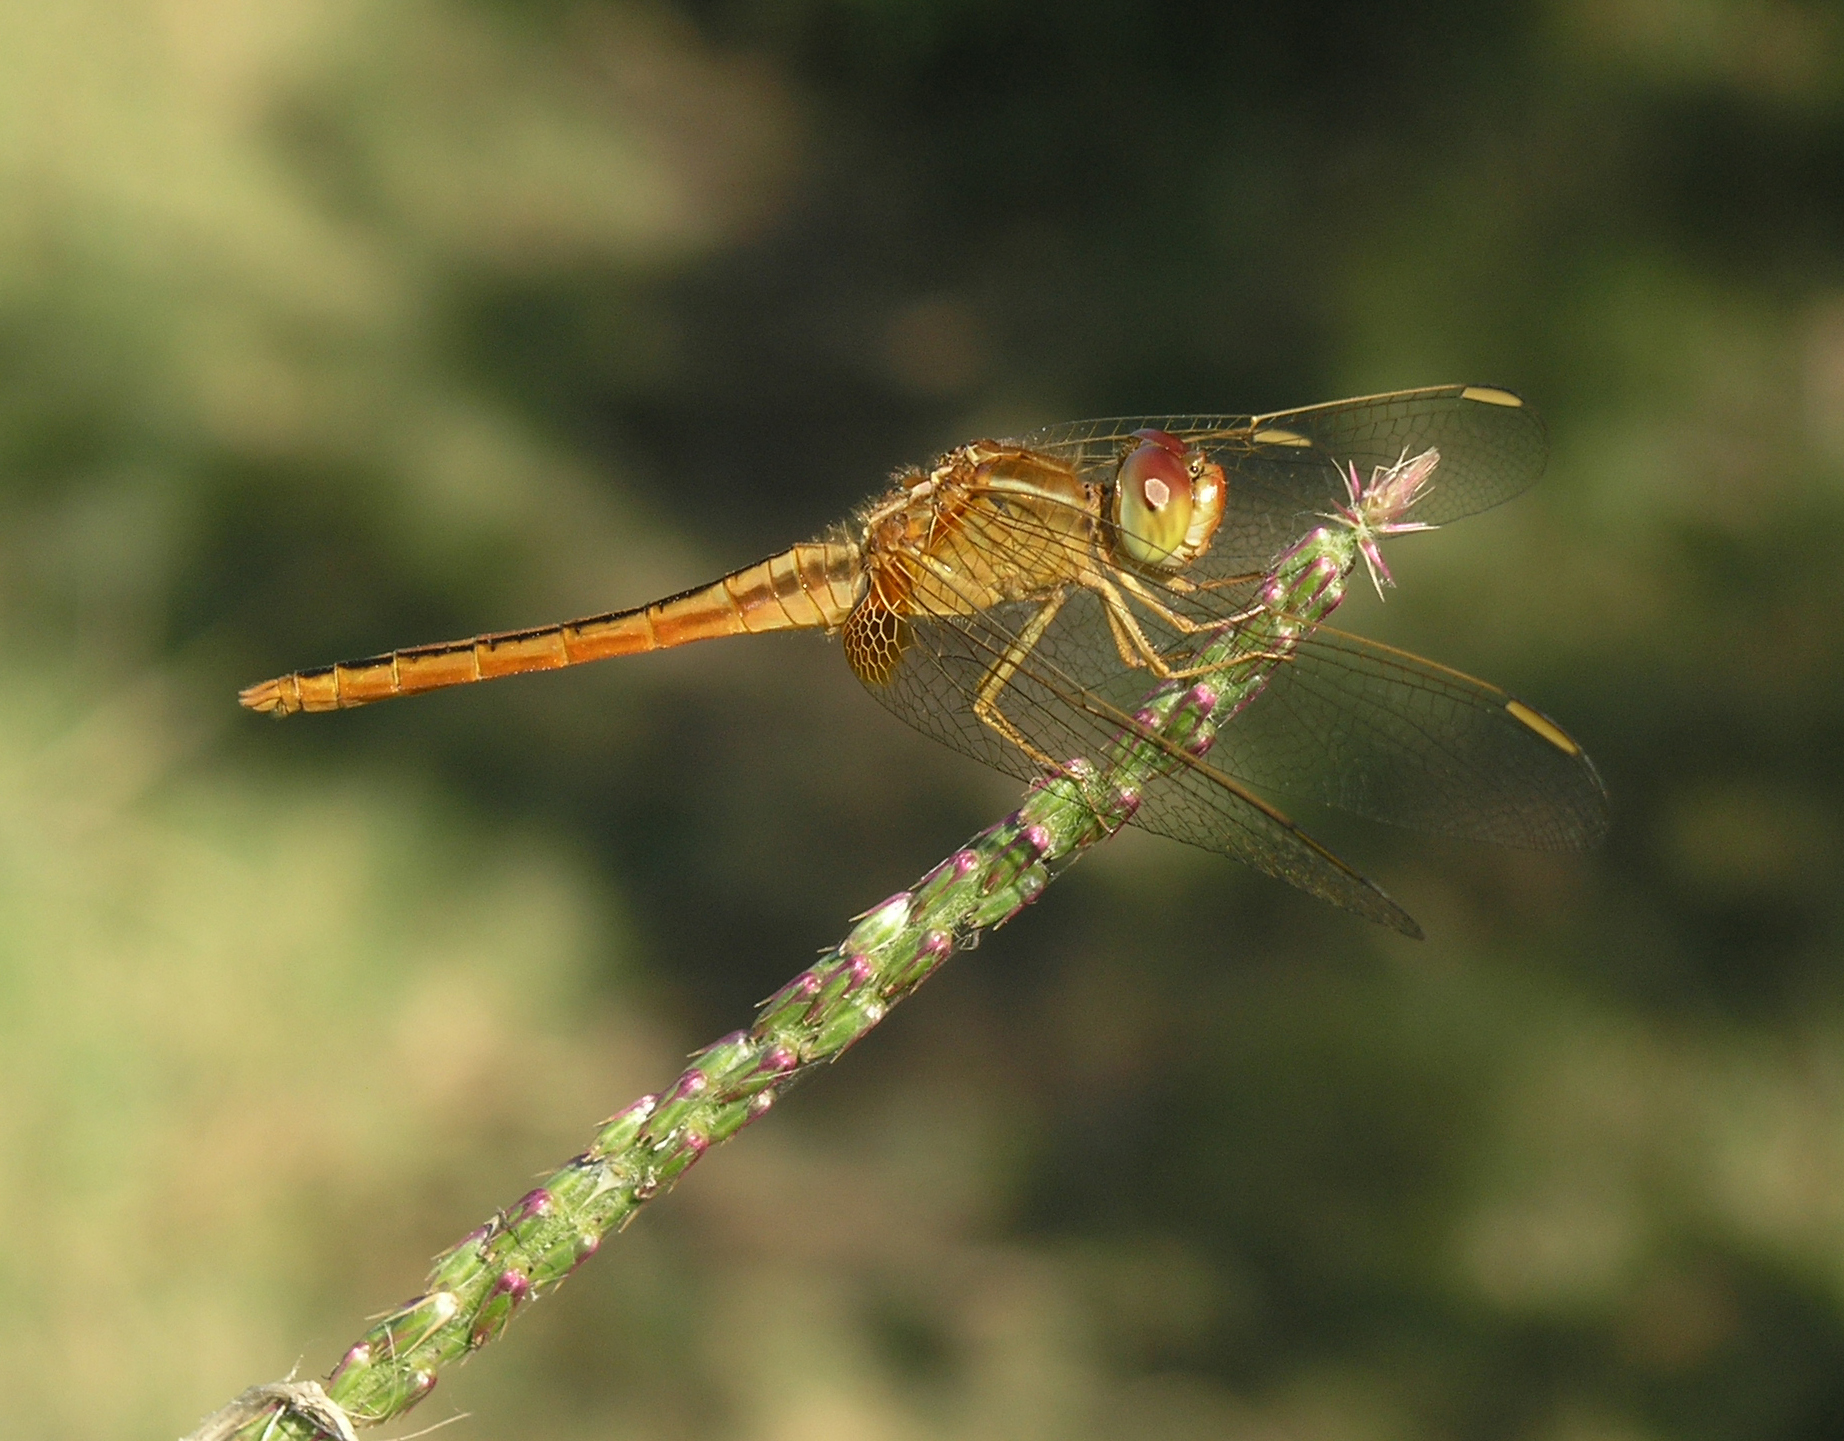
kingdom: Animalia
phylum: Arthropoda
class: Insecta
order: Odonata
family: Libellulidae
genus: Crocothemis
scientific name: Crocothemis servilia
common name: Scarlet skimmer
